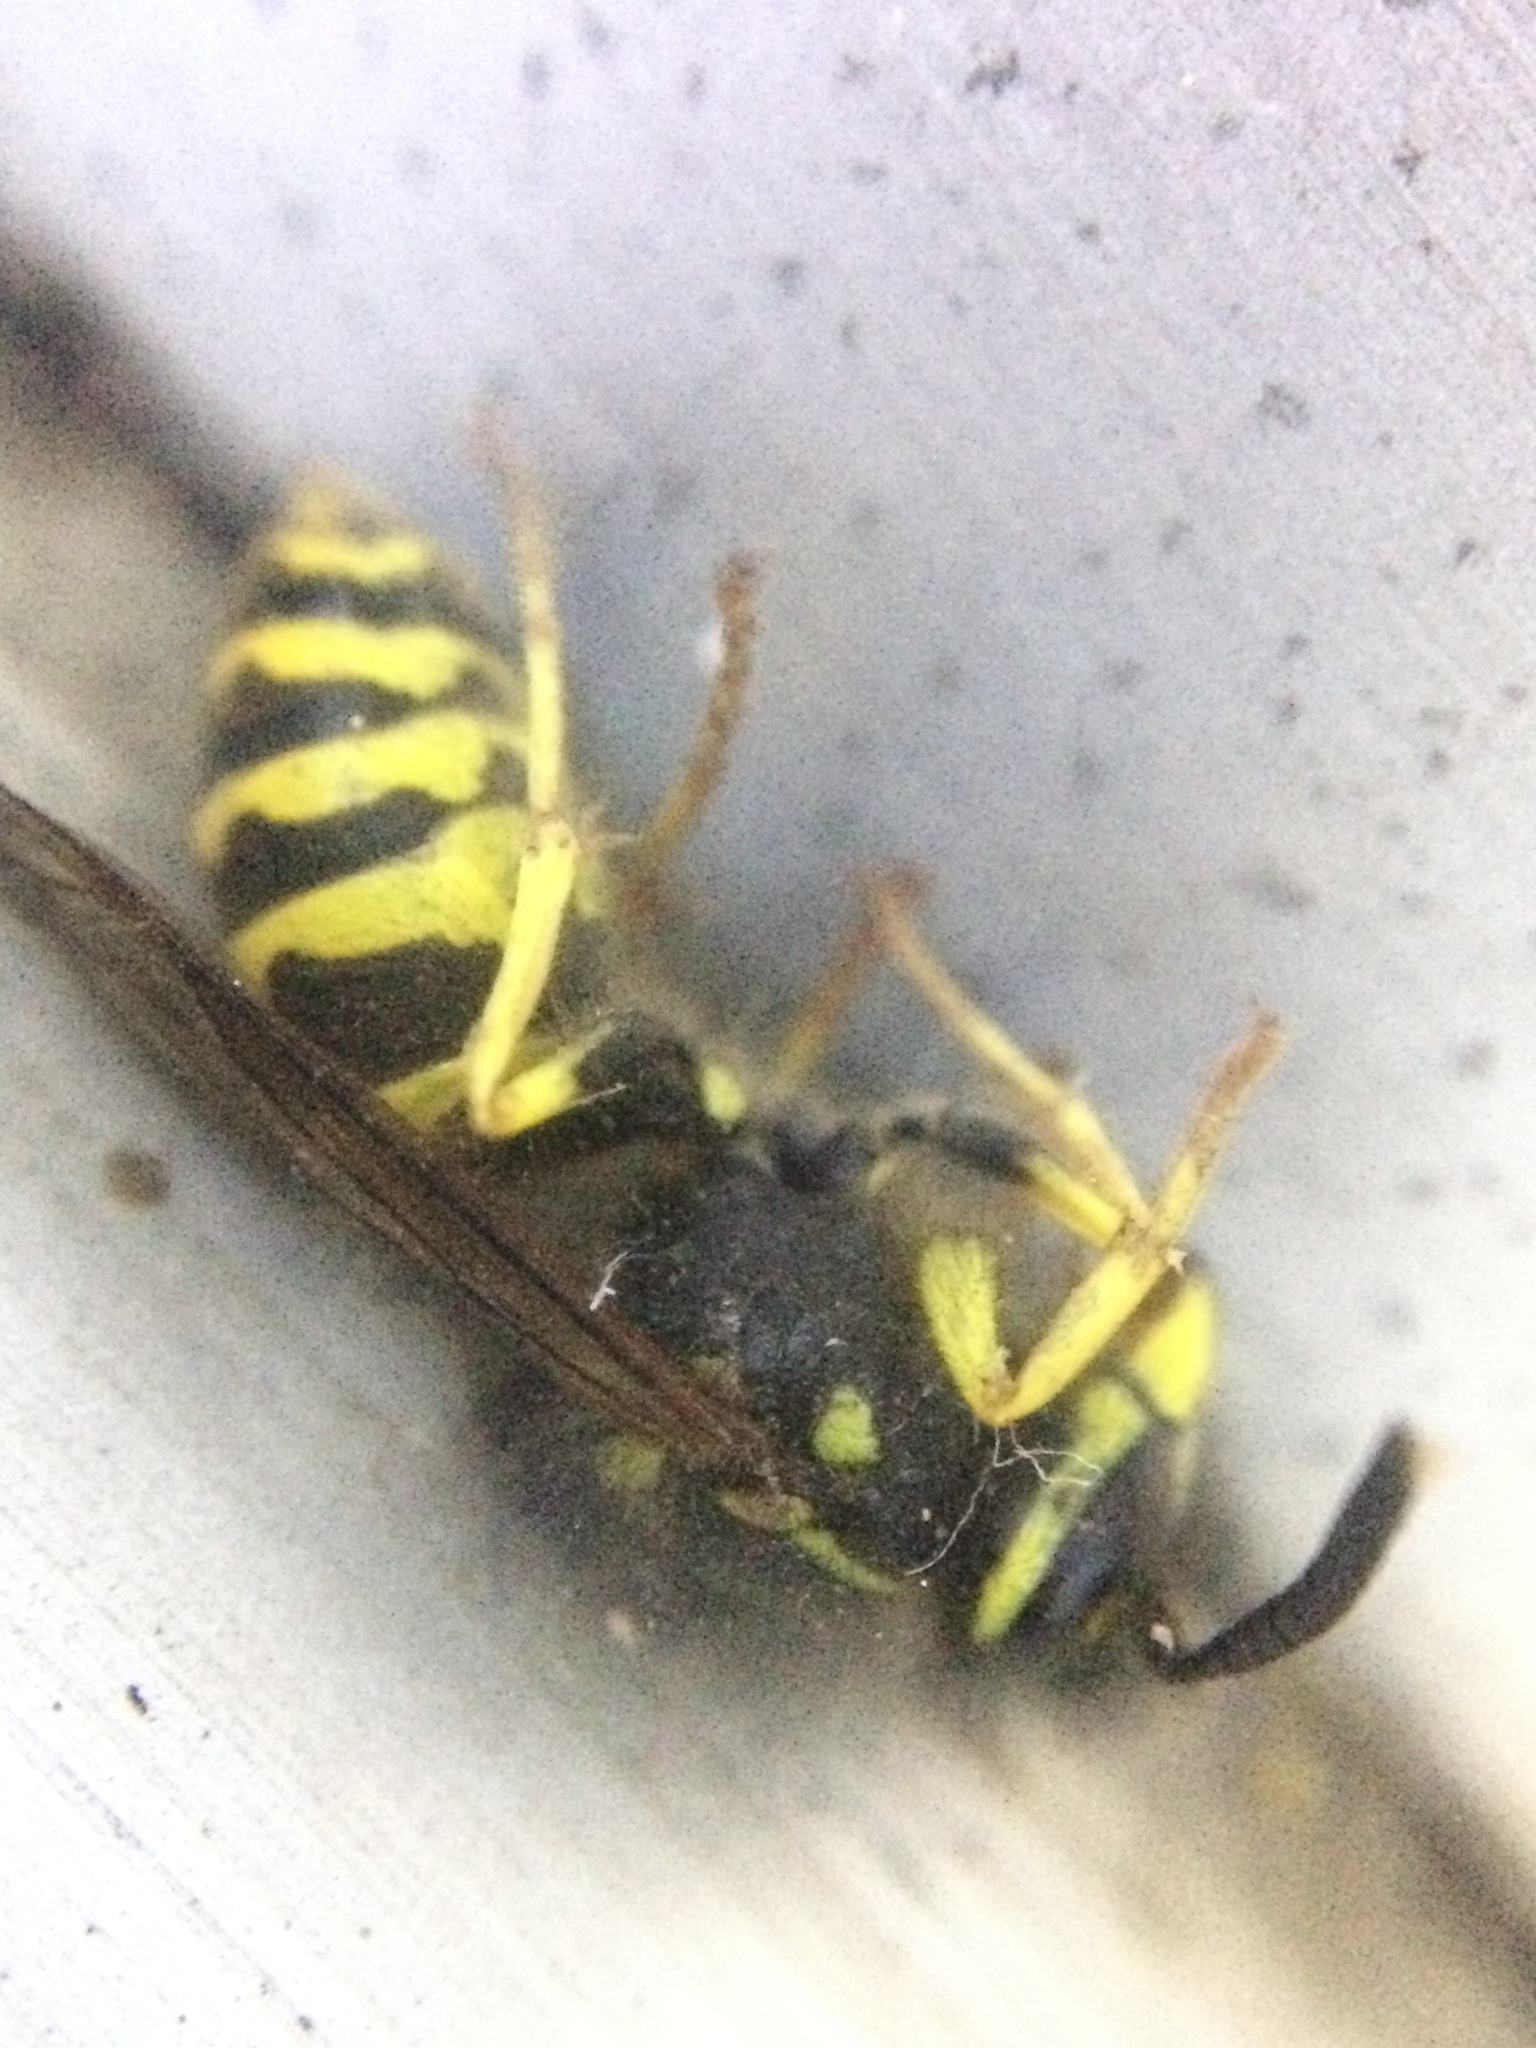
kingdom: Animalia
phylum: Arthropoda
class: Insecta
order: Hymenoptera
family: Vespidae
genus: Vespula
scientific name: Vespula alascensis
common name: Alaska yellowjacket
